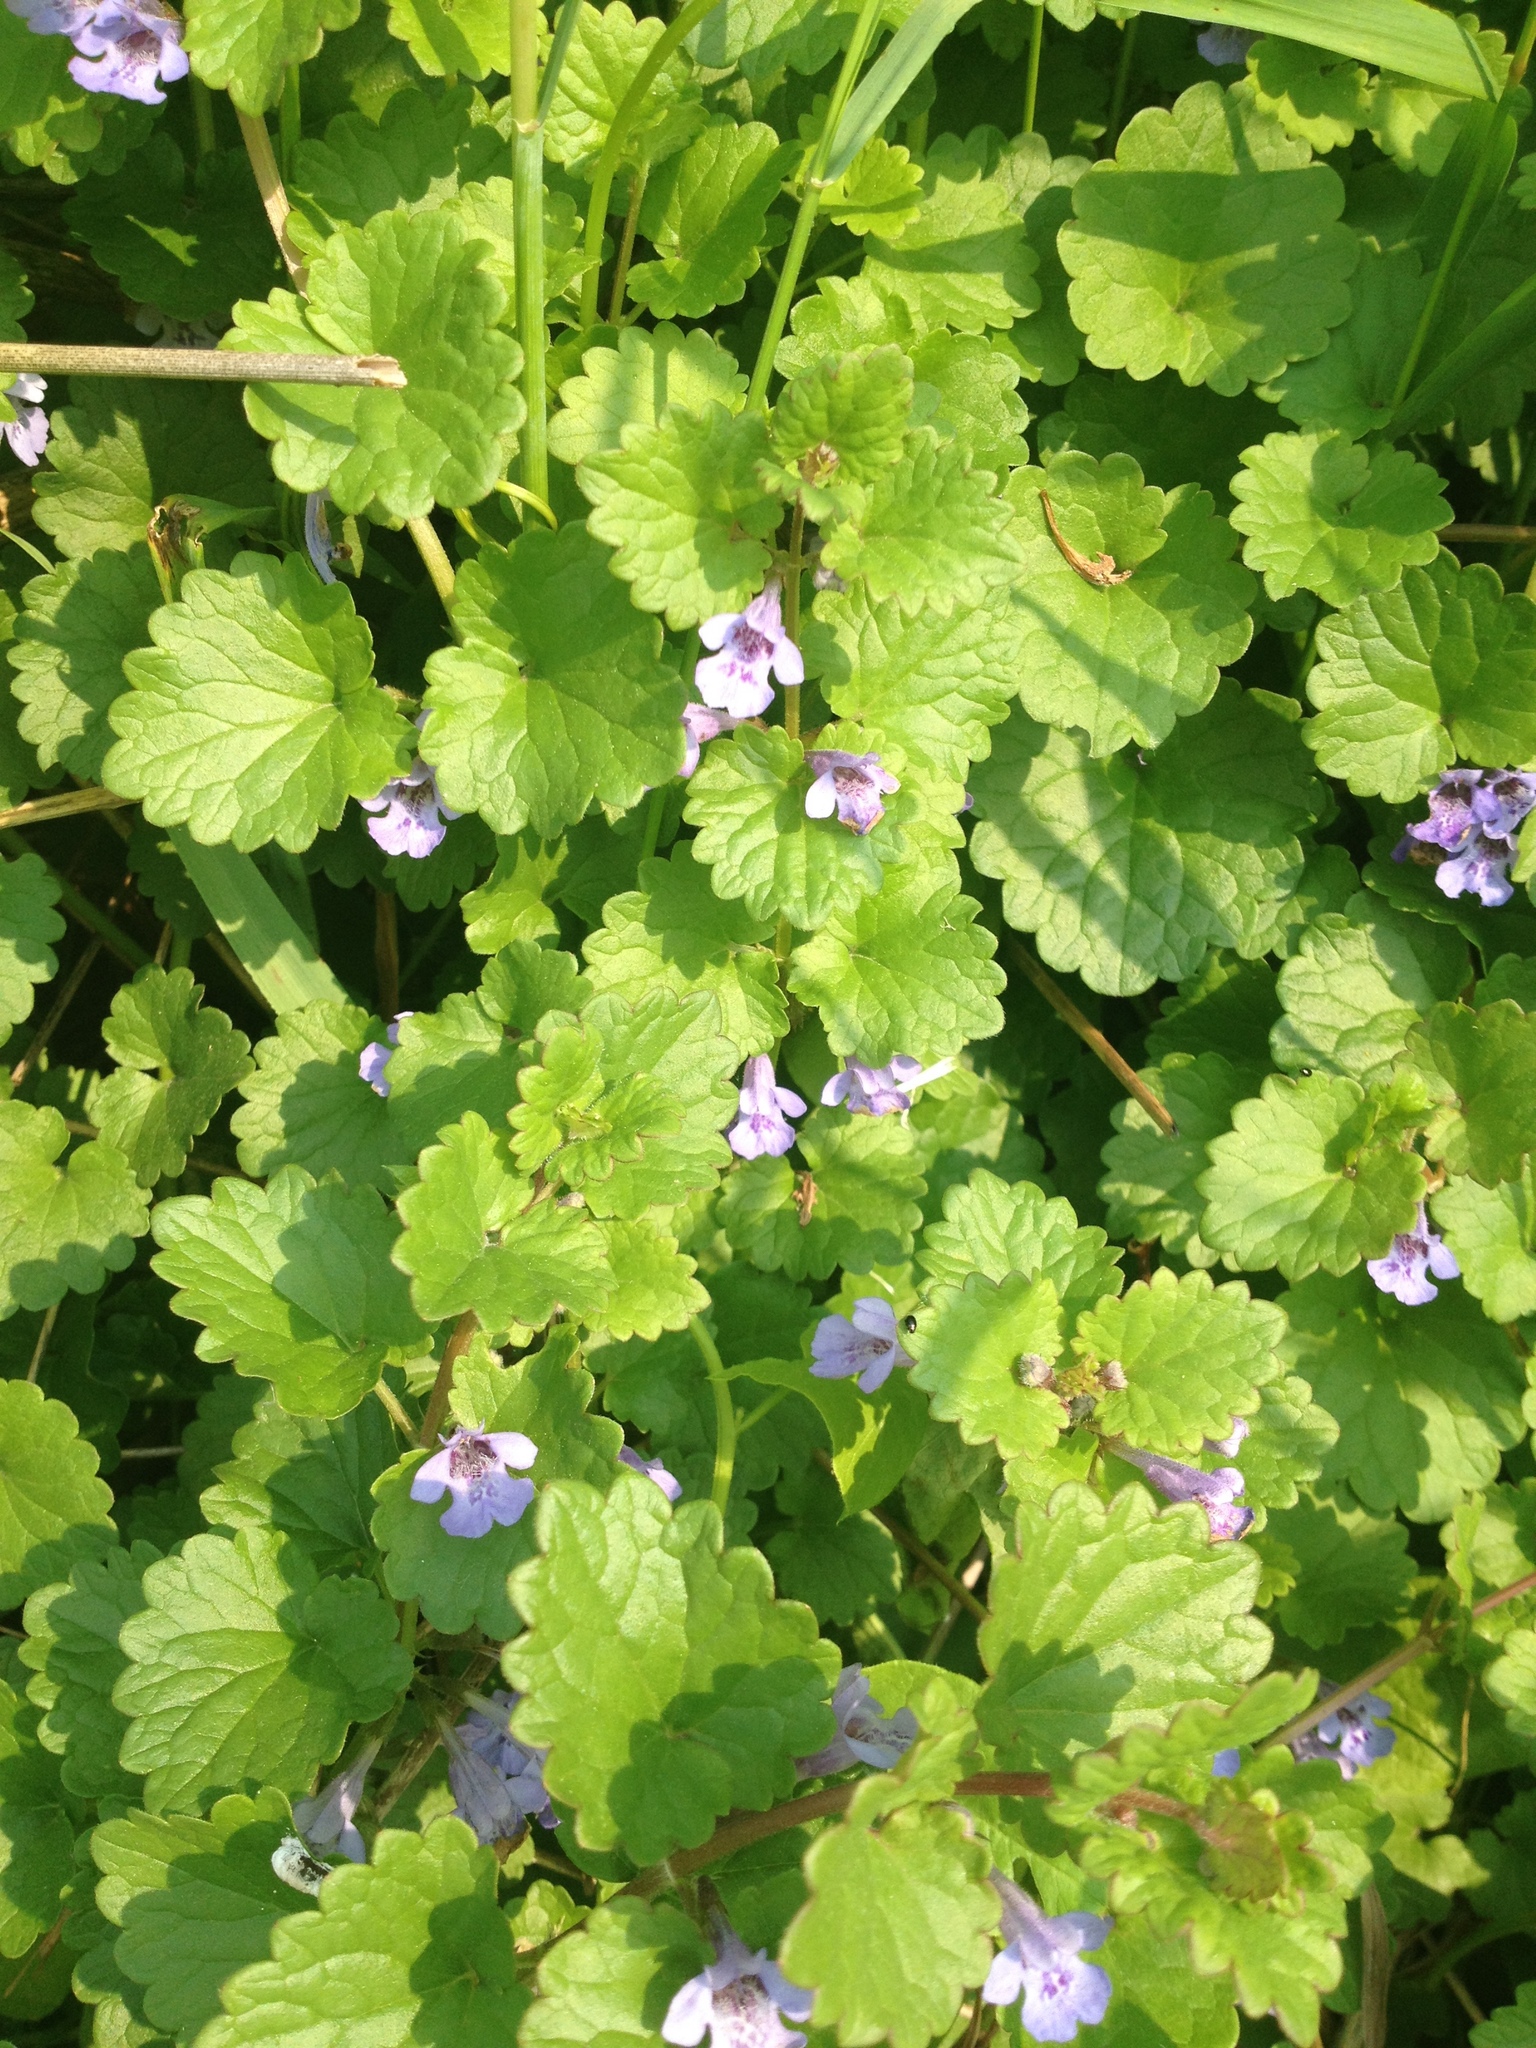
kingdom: Plantae
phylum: Tracheophyta
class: Magnoliopsida
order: Lamiales
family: Lamiaceae
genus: Glechoma
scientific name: Glechoma hederacea
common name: Ground ivy
